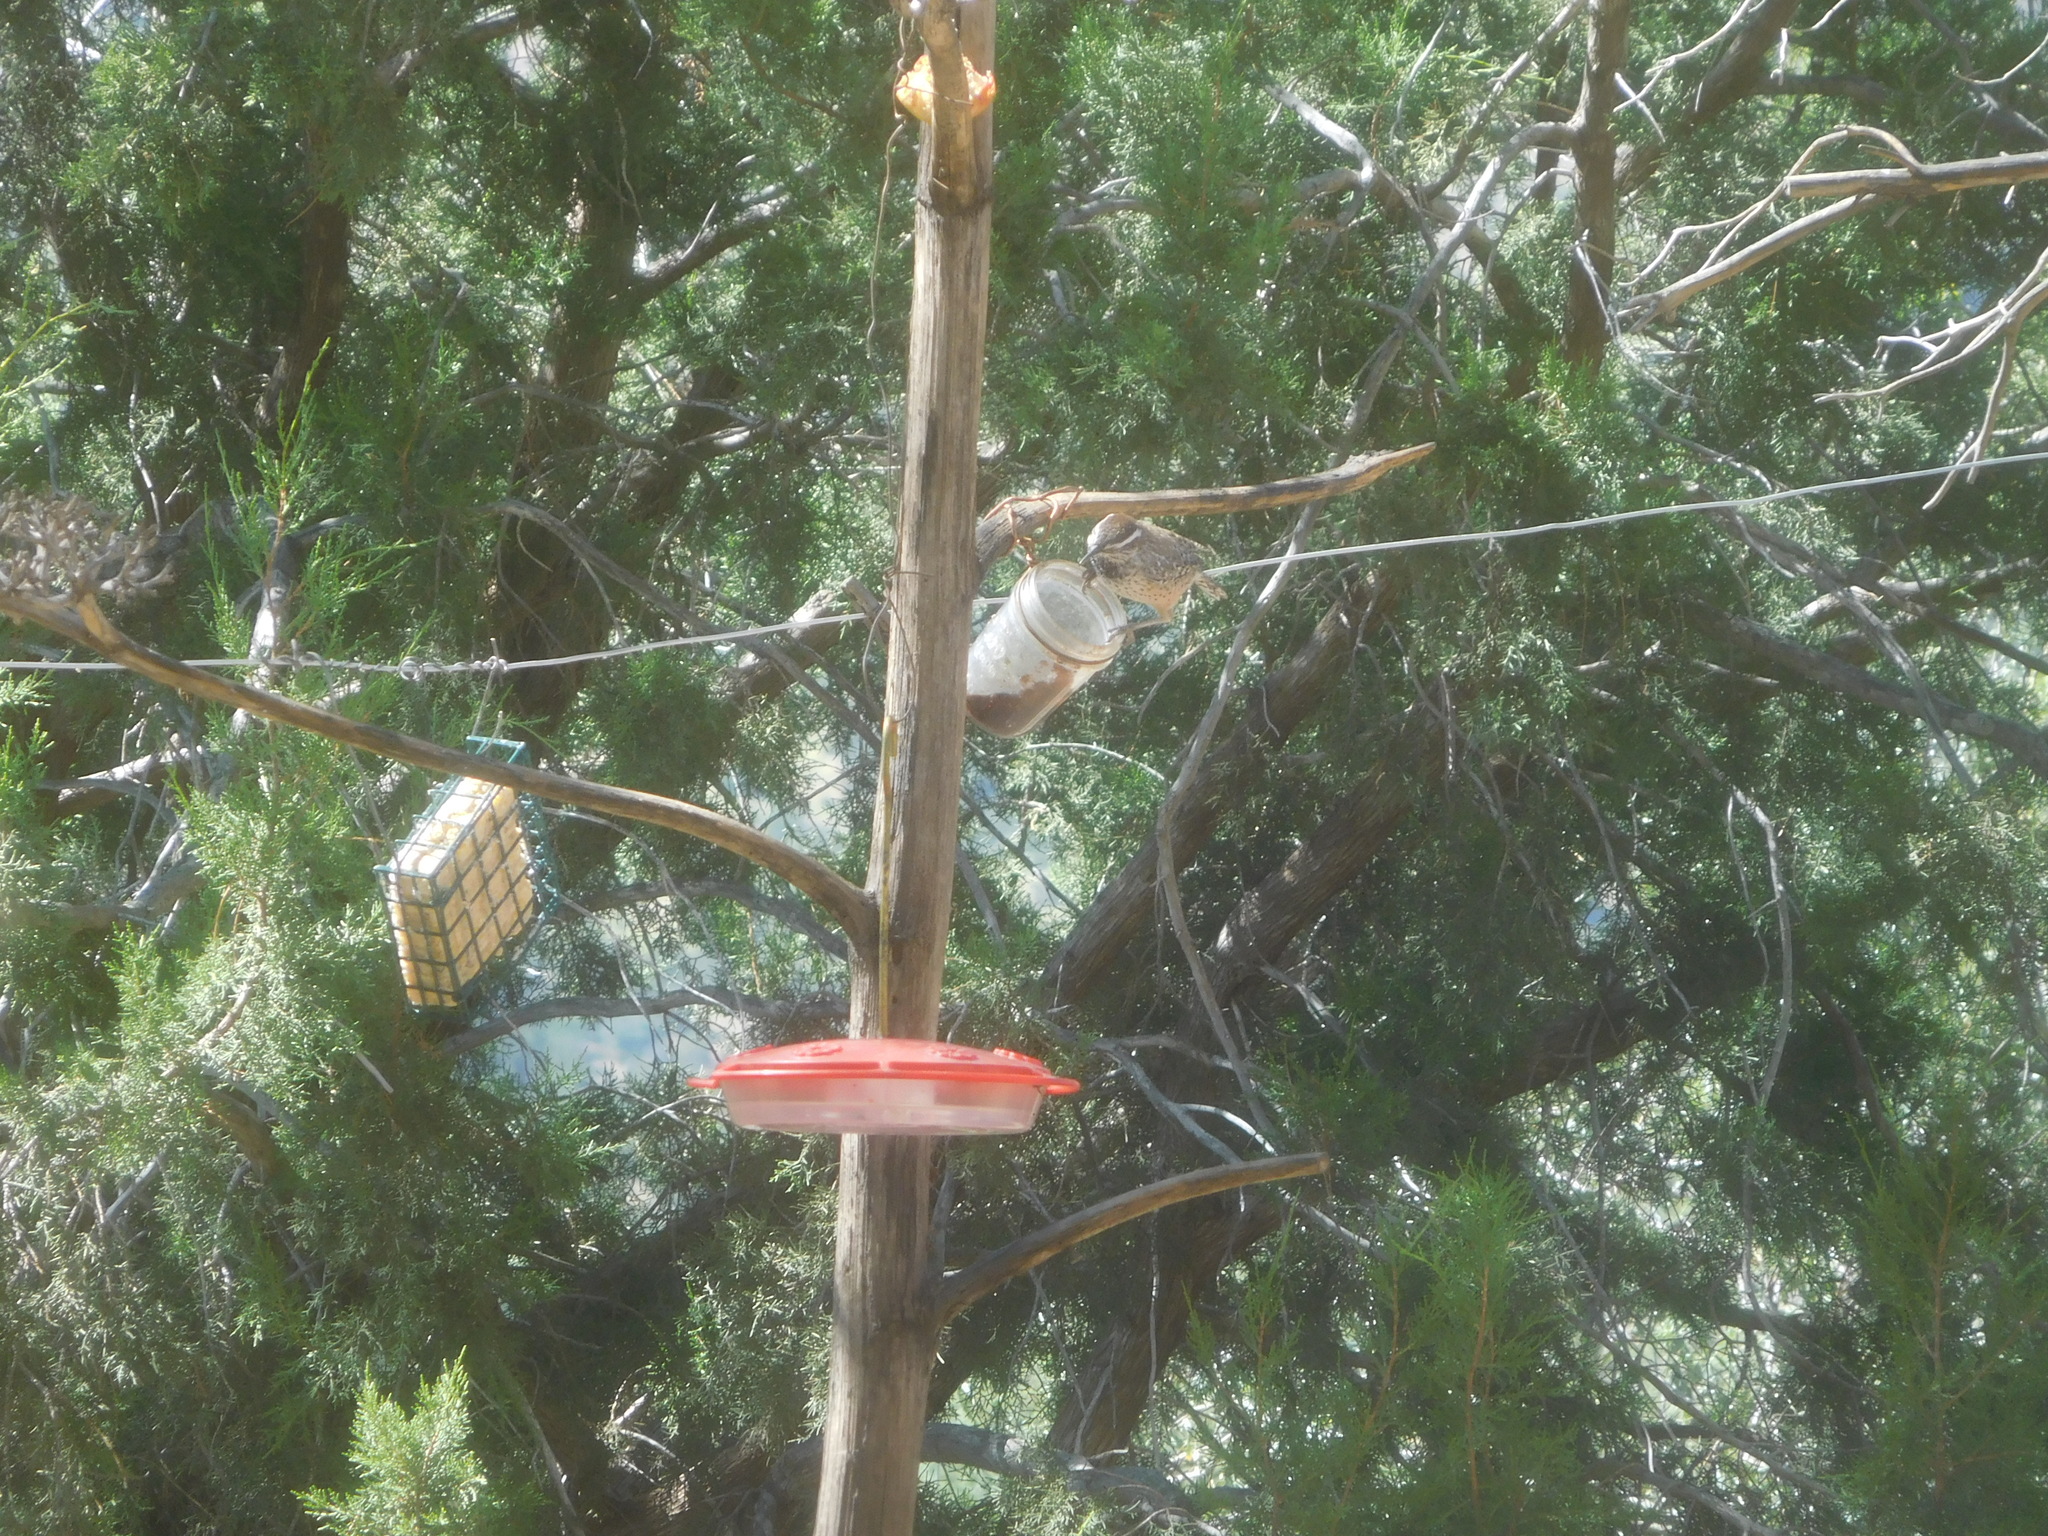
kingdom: Animalia
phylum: Chordata
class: Aves
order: Passeriformes
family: Troglodytidae
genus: Campylorhynchus
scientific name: Campylorhynchus brunneicapillus
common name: Cactus wren
